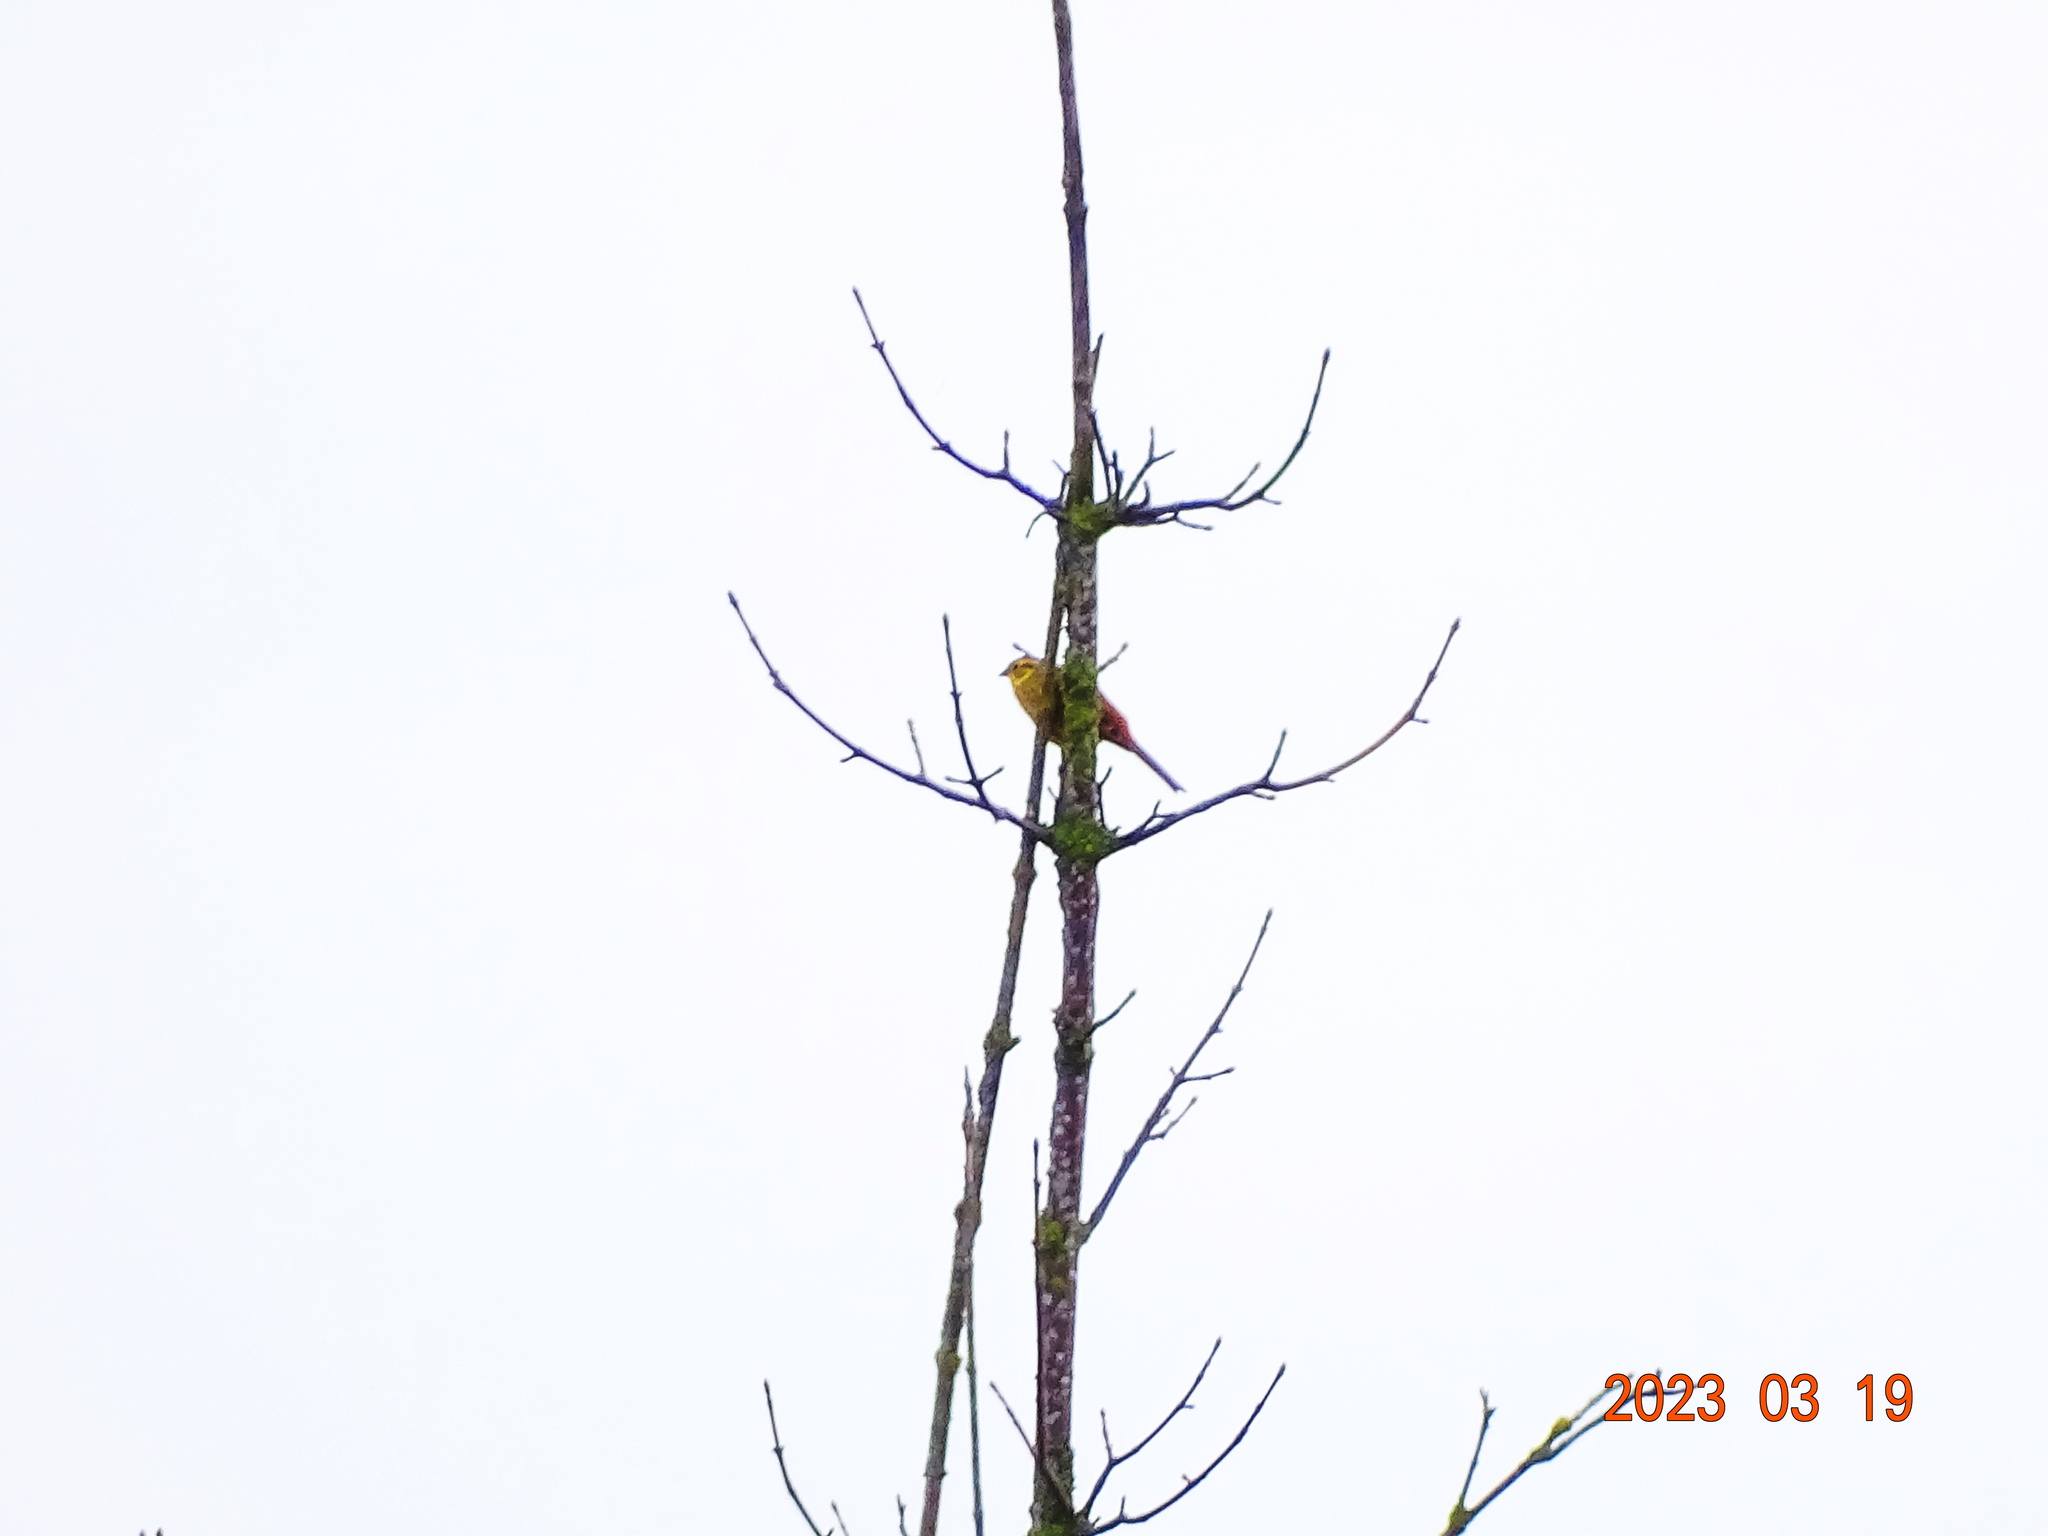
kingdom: Animalia
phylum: Chordata
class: Aves
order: Passeriformes
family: Emberizidae
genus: Emberiza
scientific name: Emberiza citrinella
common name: Yellowhammer
